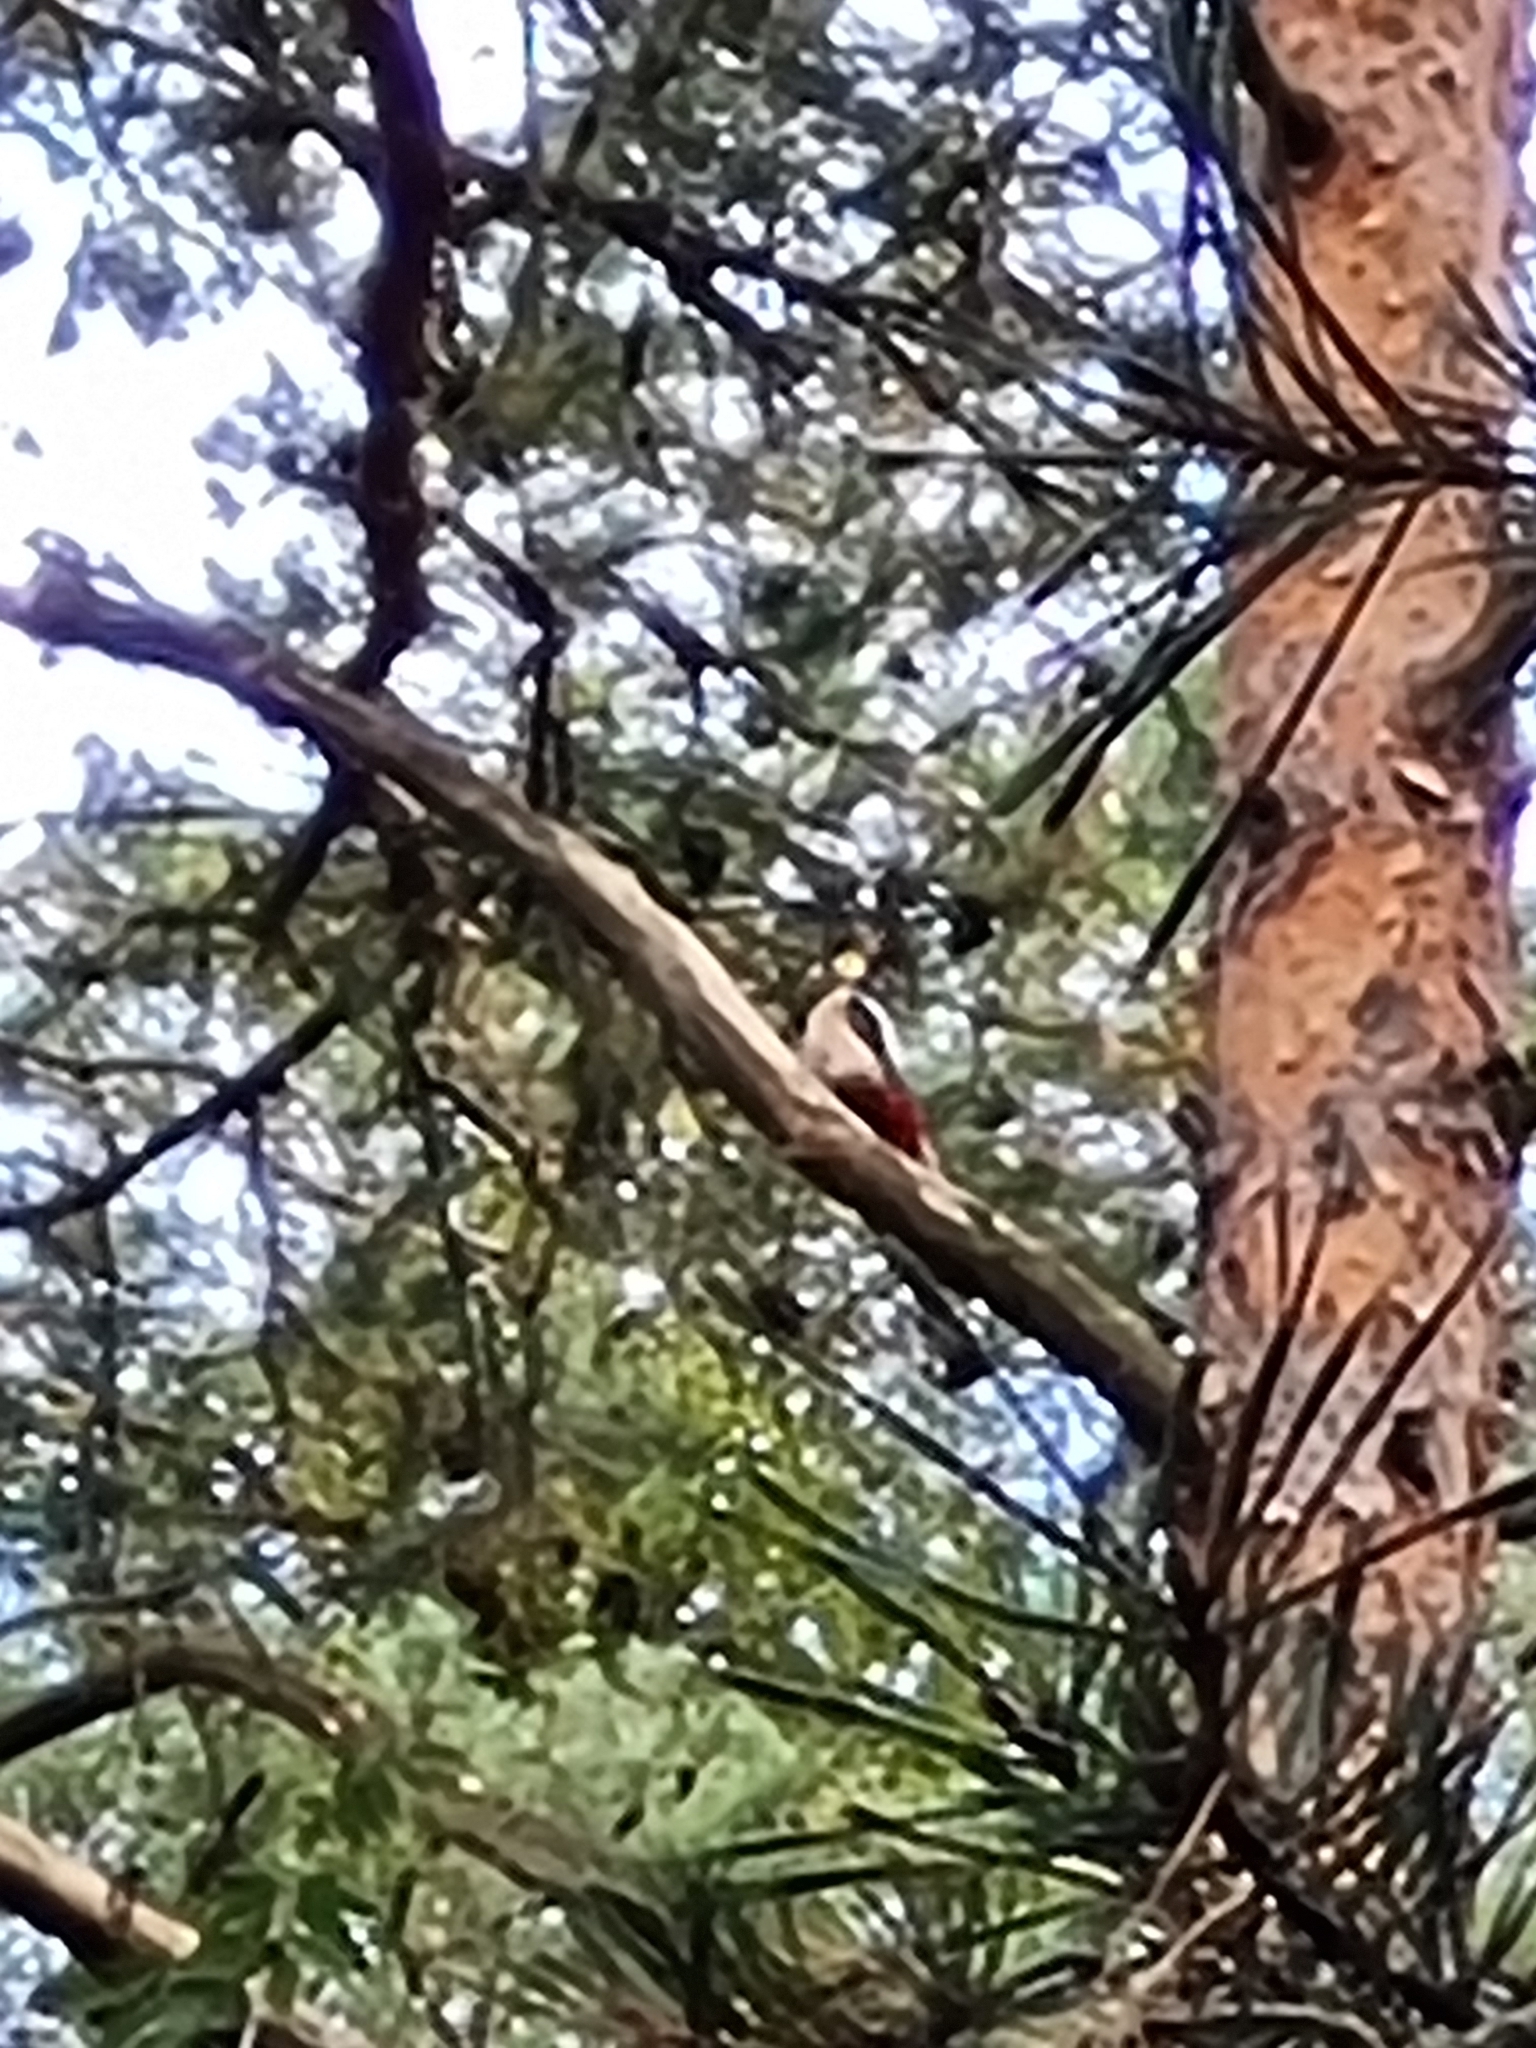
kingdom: Animalia
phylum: Chordata
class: Aves
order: Piciformes
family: Picidae
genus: Dendrocopos
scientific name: Dendrocopos major
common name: Great spotted woodpecker
